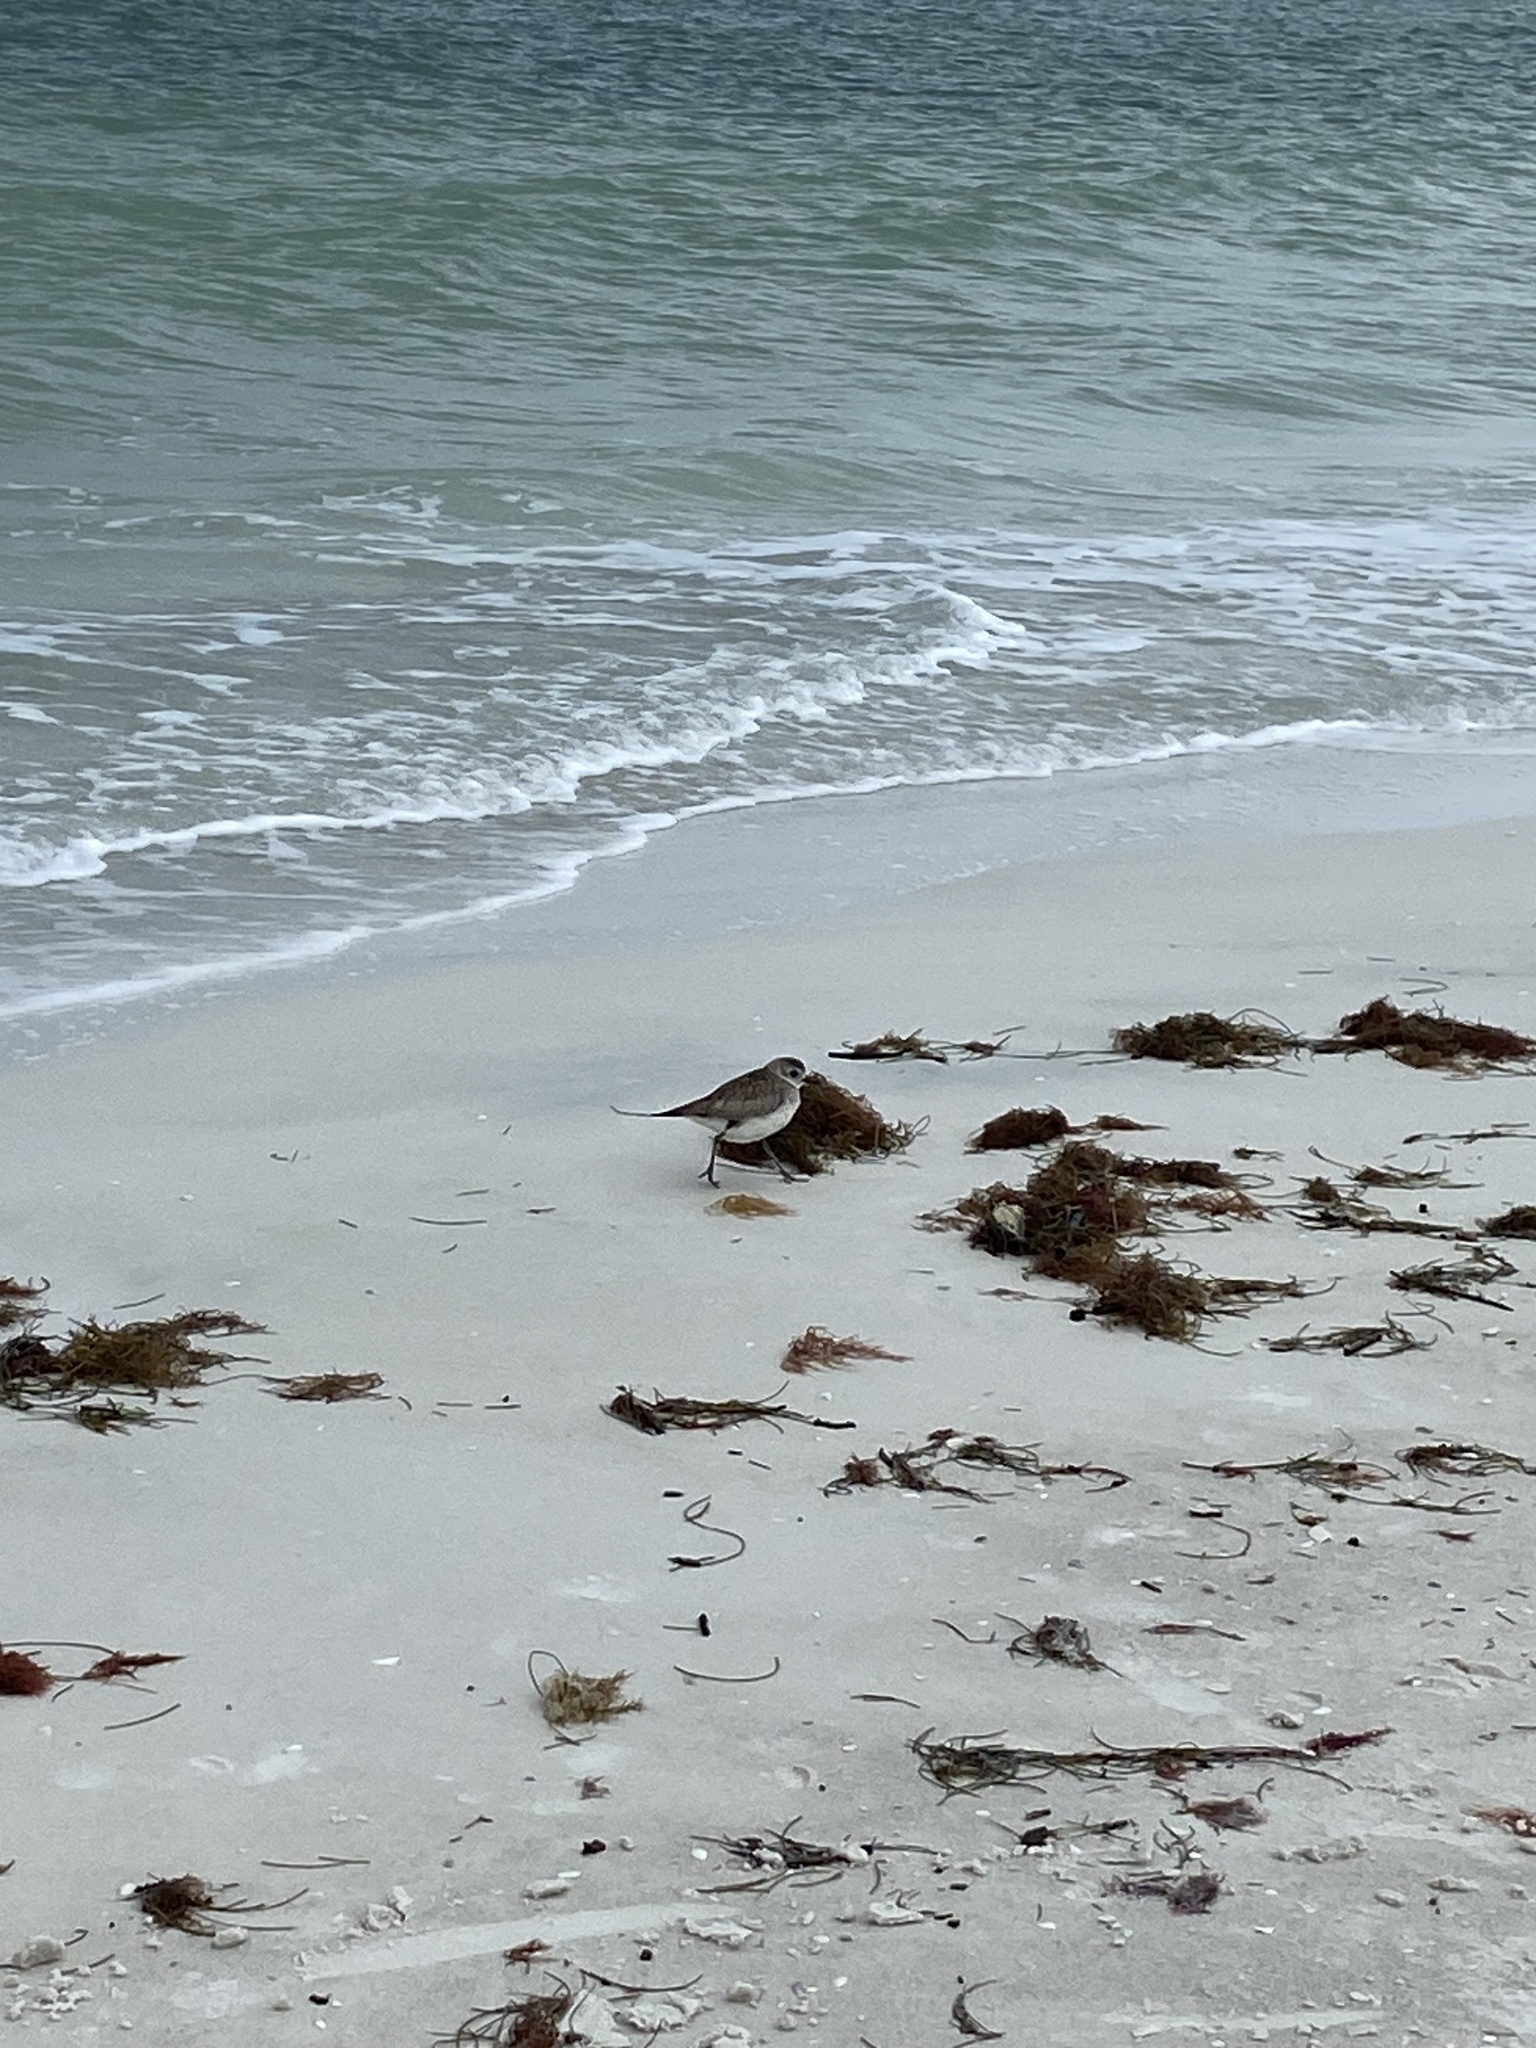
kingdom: Animalia
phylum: Chordata
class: Aves
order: Charadriiformes
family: Charadriidae
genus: Pluvialis
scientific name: Pluvialis squatarola
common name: Grey plover
